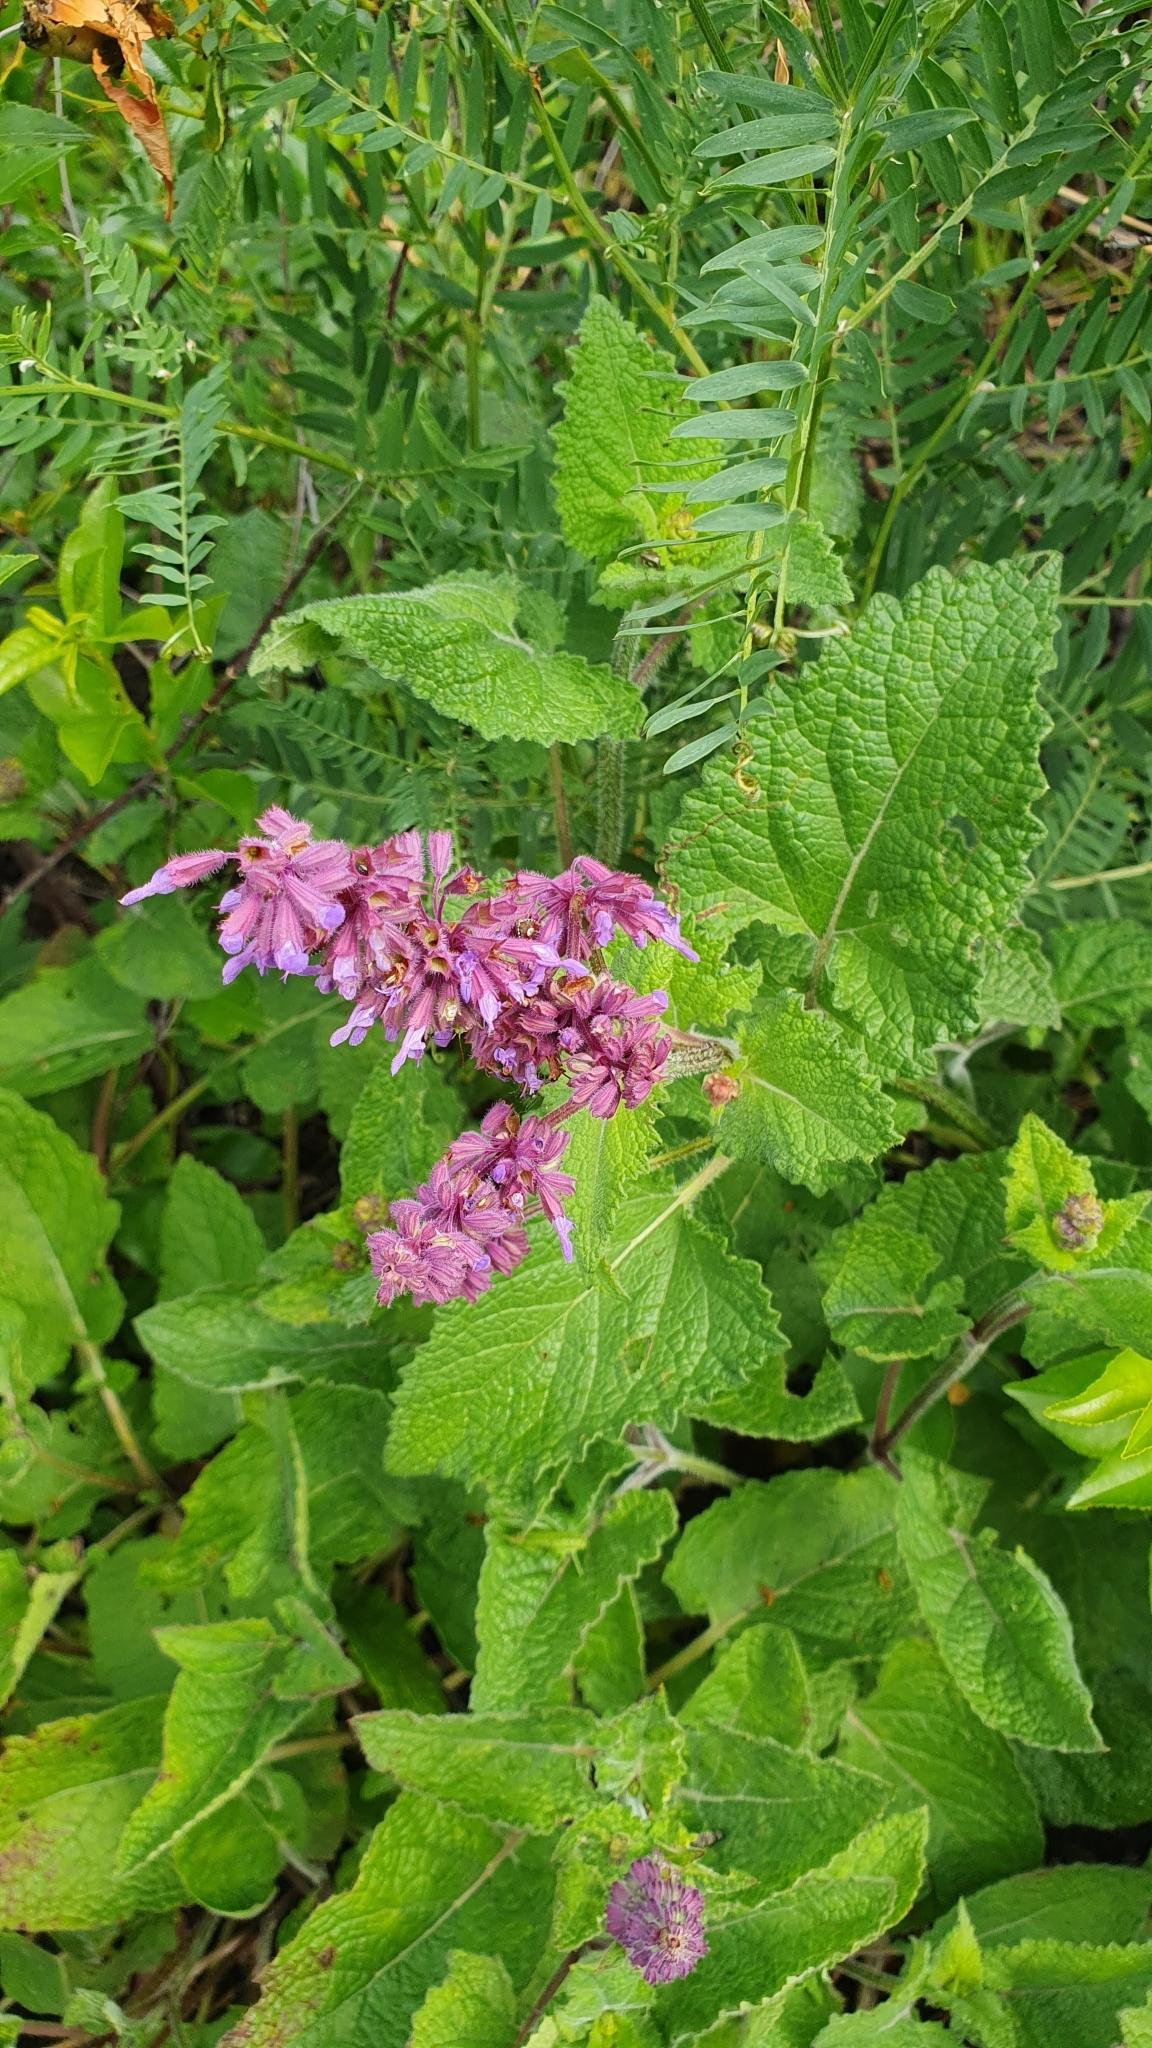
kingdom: Plantae
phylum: Tracheophyta
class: Magnoliopsida
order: Lamiales
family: Lamiaceae
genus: Salvia
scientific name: Salvia verticillata
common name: Whorled clary
